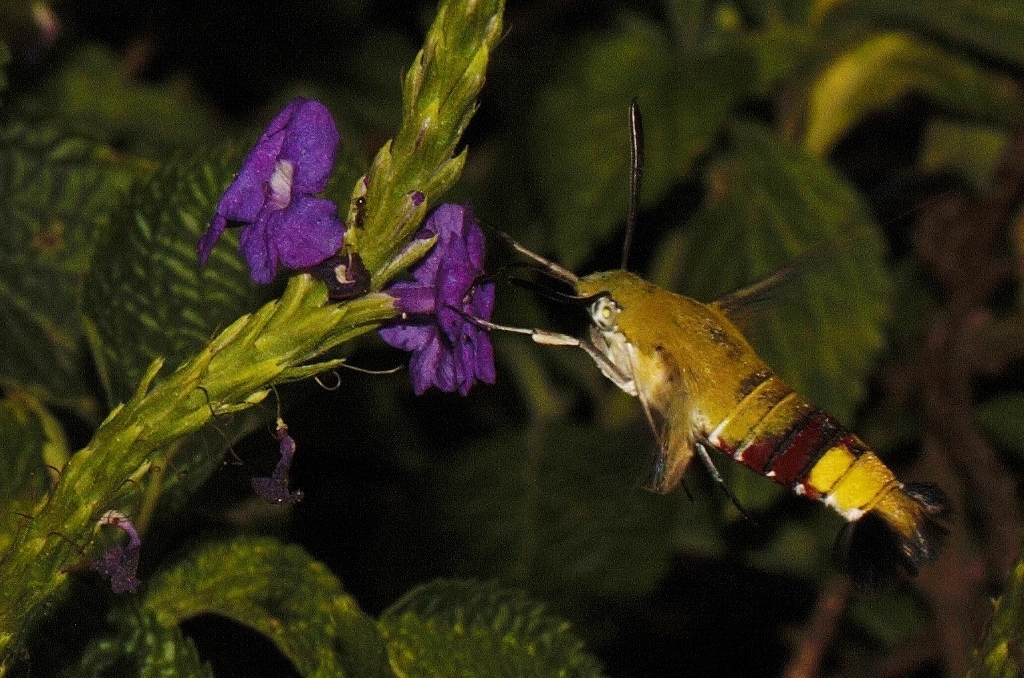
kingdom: Animalia
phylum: Arthropoda
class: Insecta
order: Lepidoptera
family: Sphingidae
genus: Cephonodes
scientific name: Cephonodes hylas
